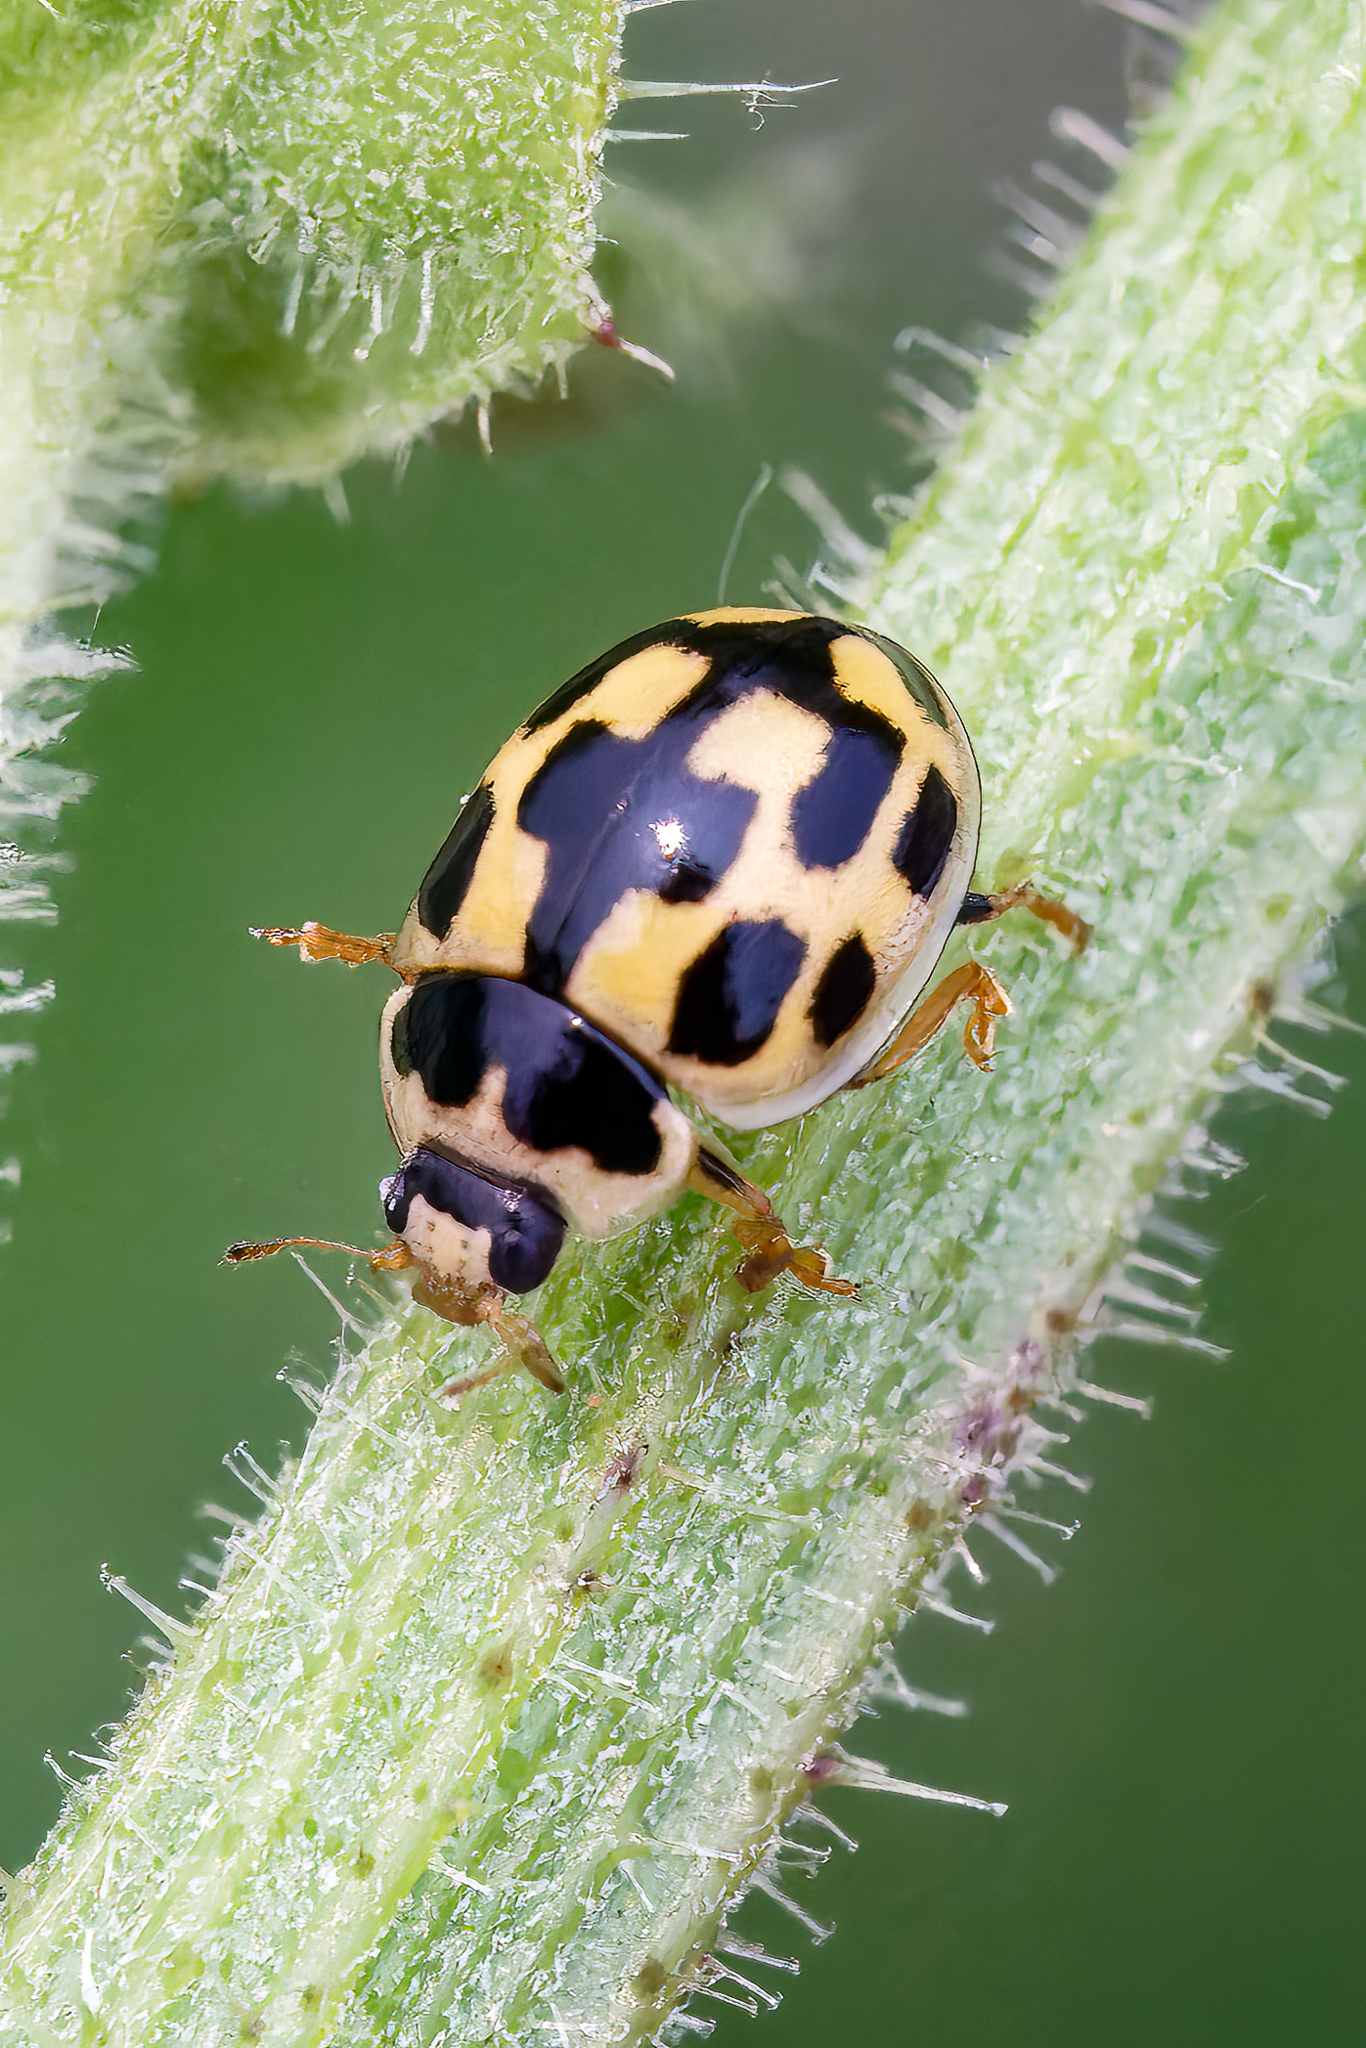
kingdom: Animalia
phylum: Arthropoda
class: Insecta
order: Coleoptera
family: Coccinellidae
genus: Propylaea
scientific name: Propylaea quatuordecimpunctata
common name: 14-spotted ladybird beetle
